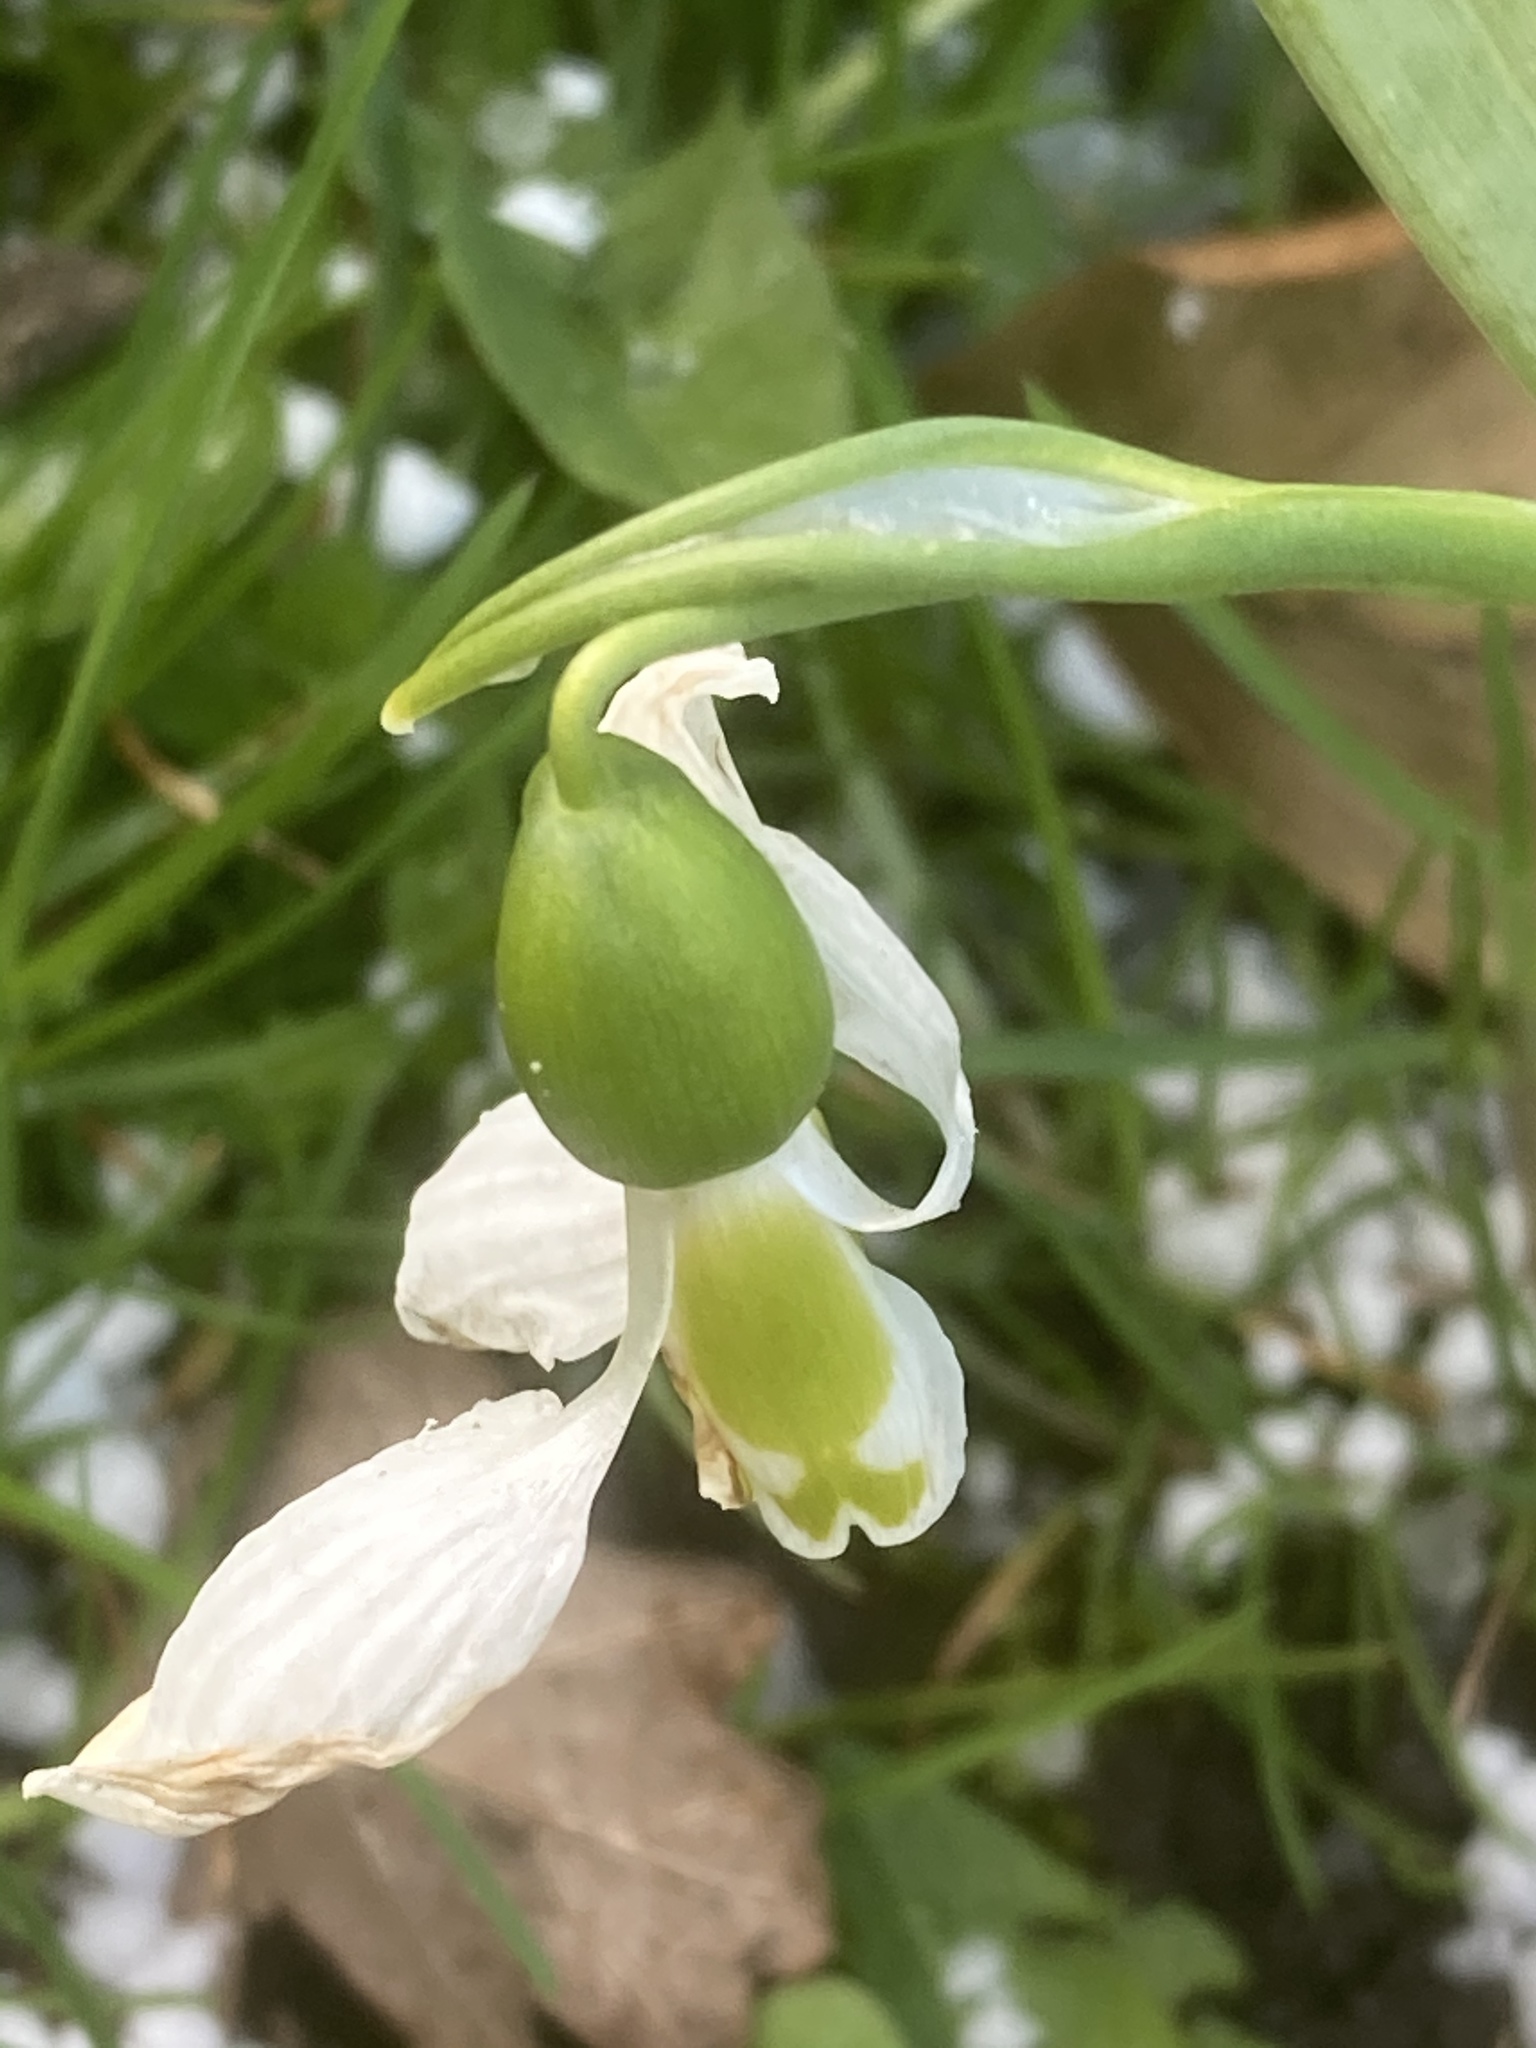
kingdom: Plantae
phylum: Tracheophyta
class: Liliopsida
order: Asparagales
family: Amaryllidaceae
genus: Galanthus
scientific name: Galanthus elwesii
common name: Greater snowdrop
